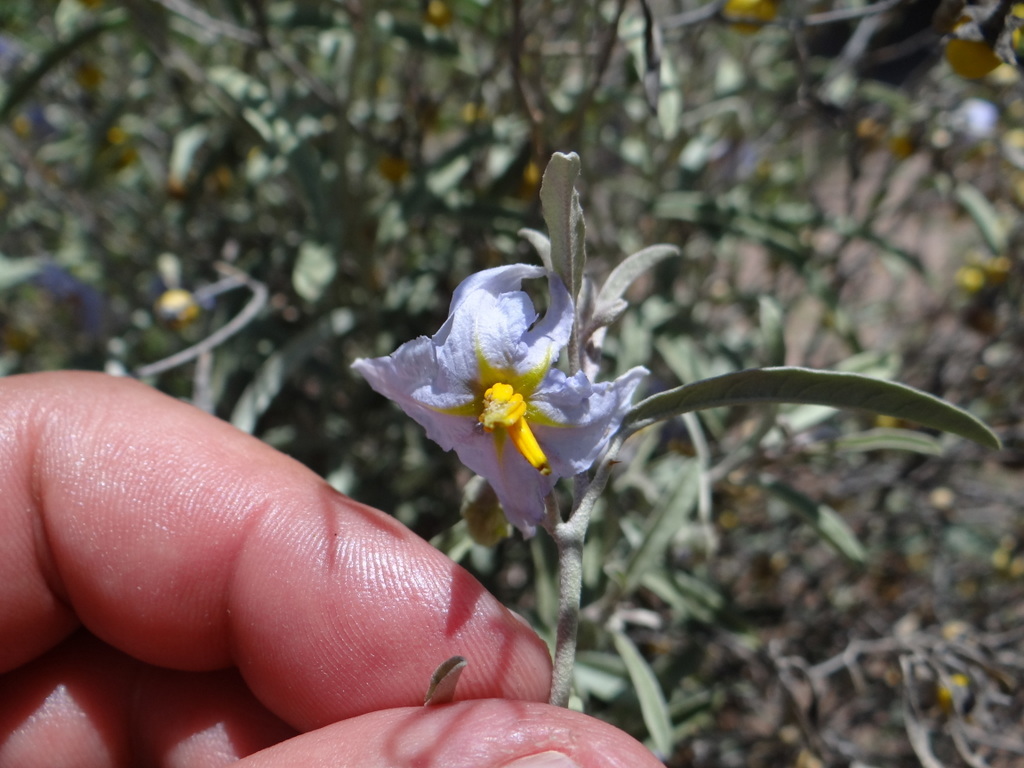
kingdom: Plantae
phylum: Tracheophyta
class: Magnoliopsida
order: Solanales
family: Solanaceae
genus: Solanum
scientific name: Solanum elaeagnifolium
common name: Silverleaf nightshade
